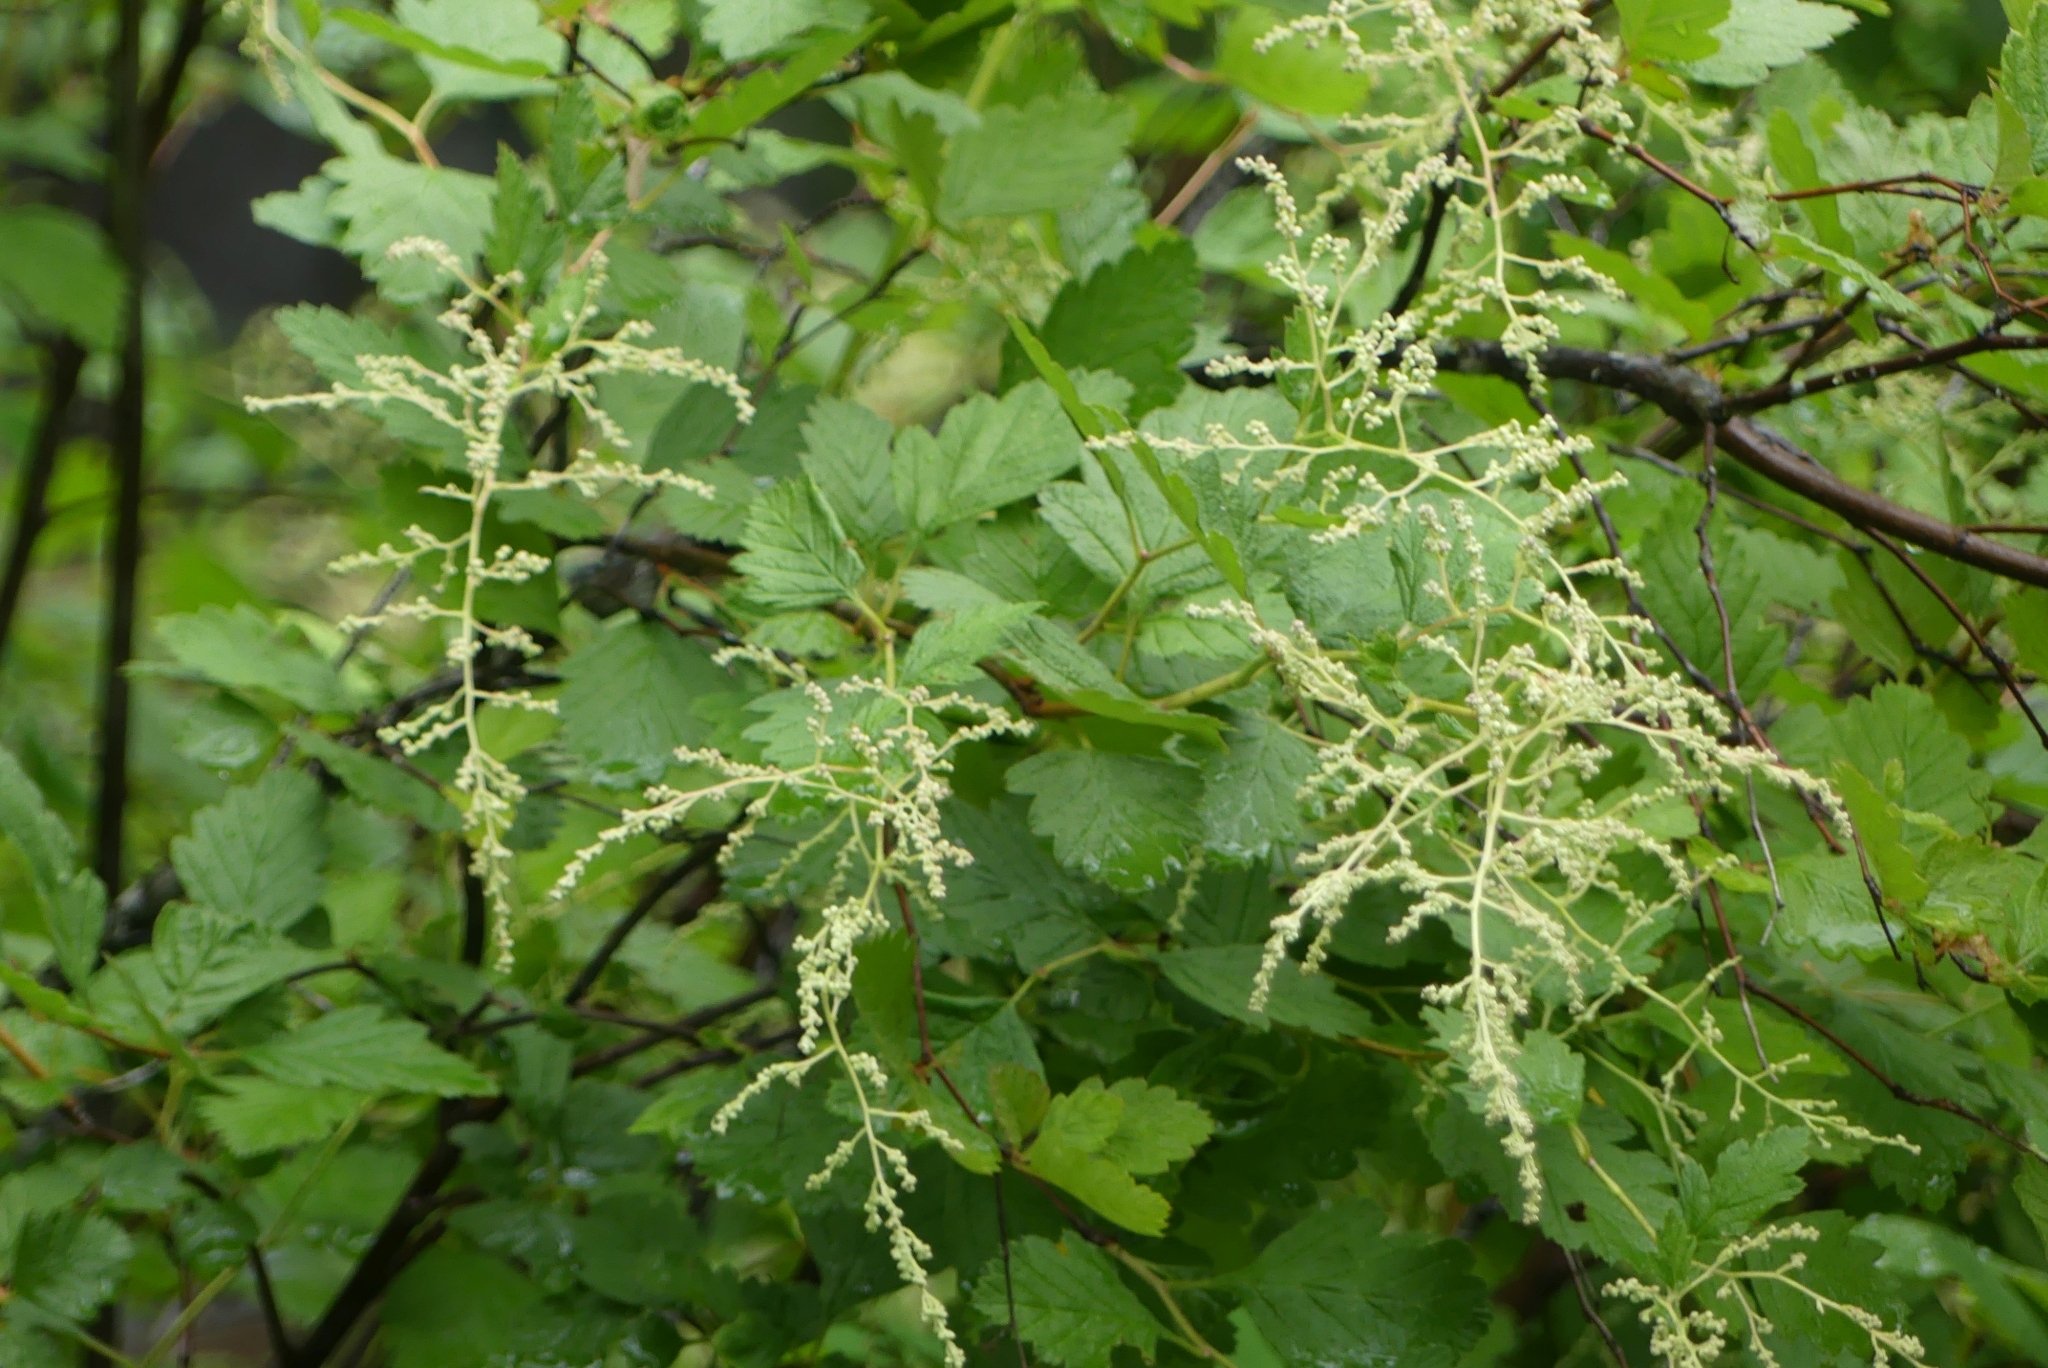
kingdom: Plantae
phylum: Tracheophyta
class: Magnoliopsida
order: Rosales
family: Rosaceae
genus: Holodiscus
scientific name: Holodiscus discolor
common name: Oceanspray
